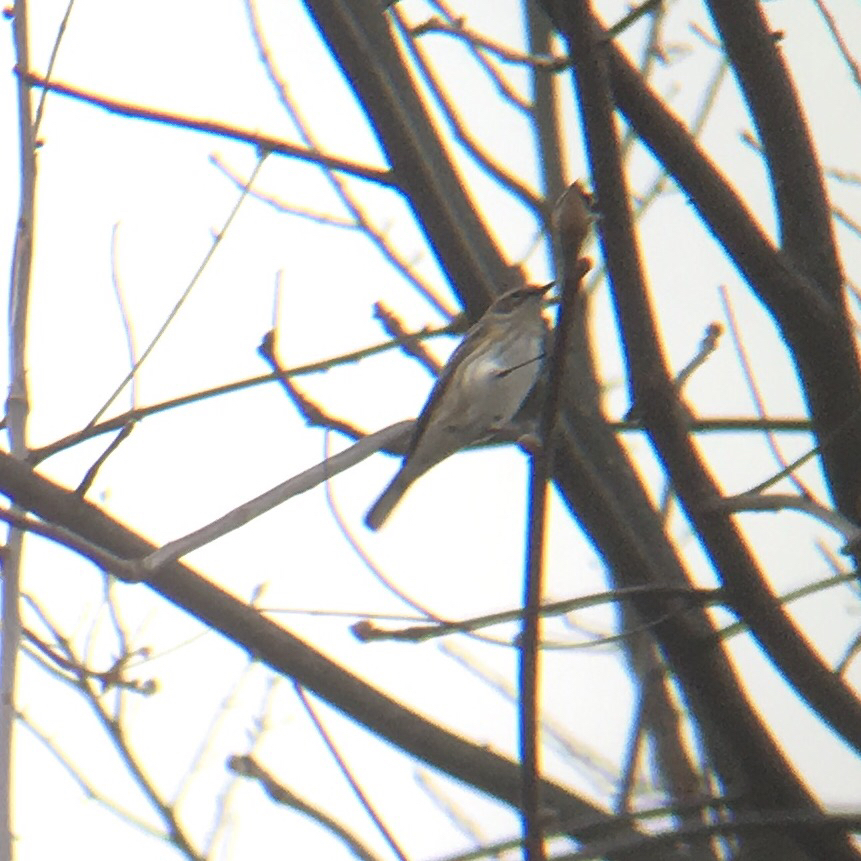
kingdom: Animalia
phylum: Chordata
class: Aves
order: Passeriformes
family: Parulidae
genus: Setophaga
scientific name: Setophaga coronata
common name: Myrtle warbler
